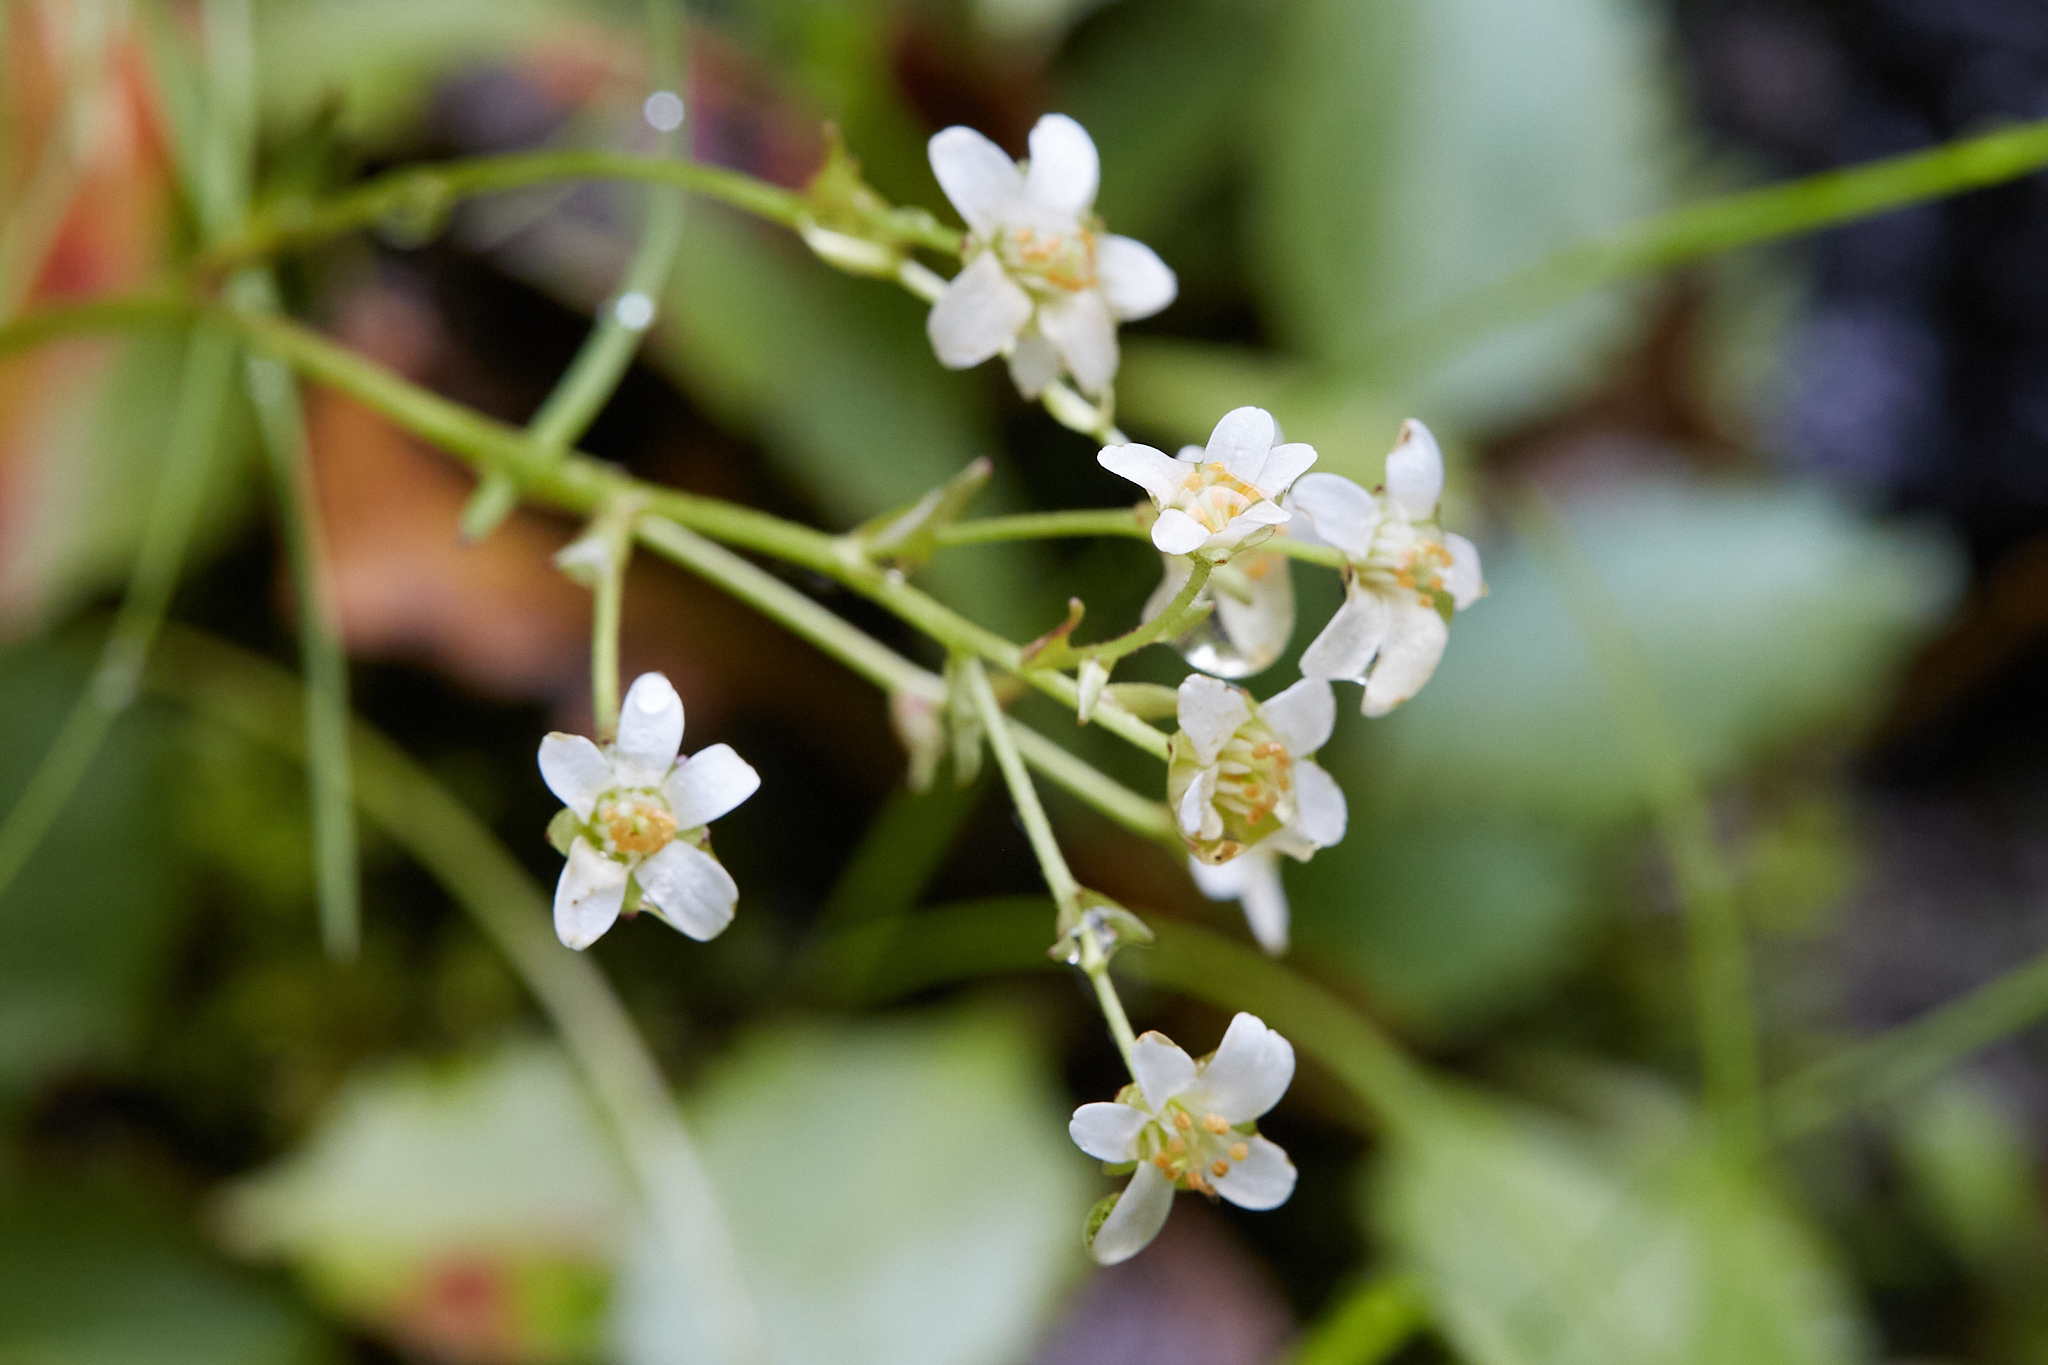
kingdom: Plantae
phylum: Tracheophyta
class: Magnoliopsida
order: Saxifragales
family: Saxifragaceae
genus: Micranthes
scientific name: Micranthes rufidula
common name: Rustyhair saxifrage
